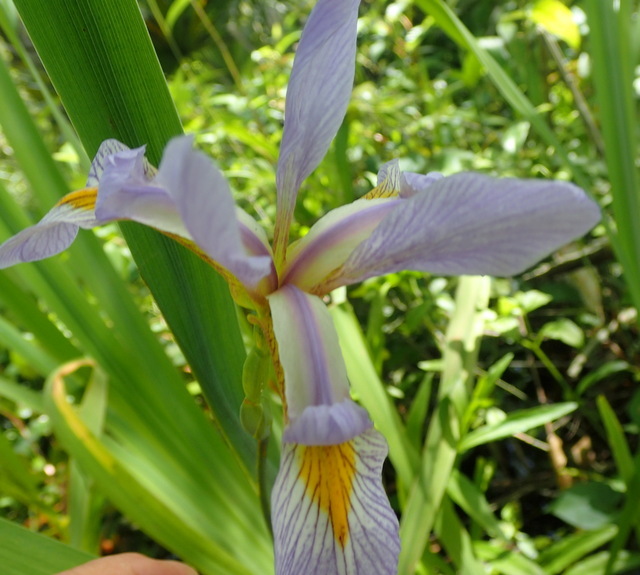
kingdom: Plantae
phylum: Tracheophyta
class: Liliopsida
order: Asparagales
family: Iridaceae
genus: Iris
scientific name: Iris virginica
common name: Southern blue flag
